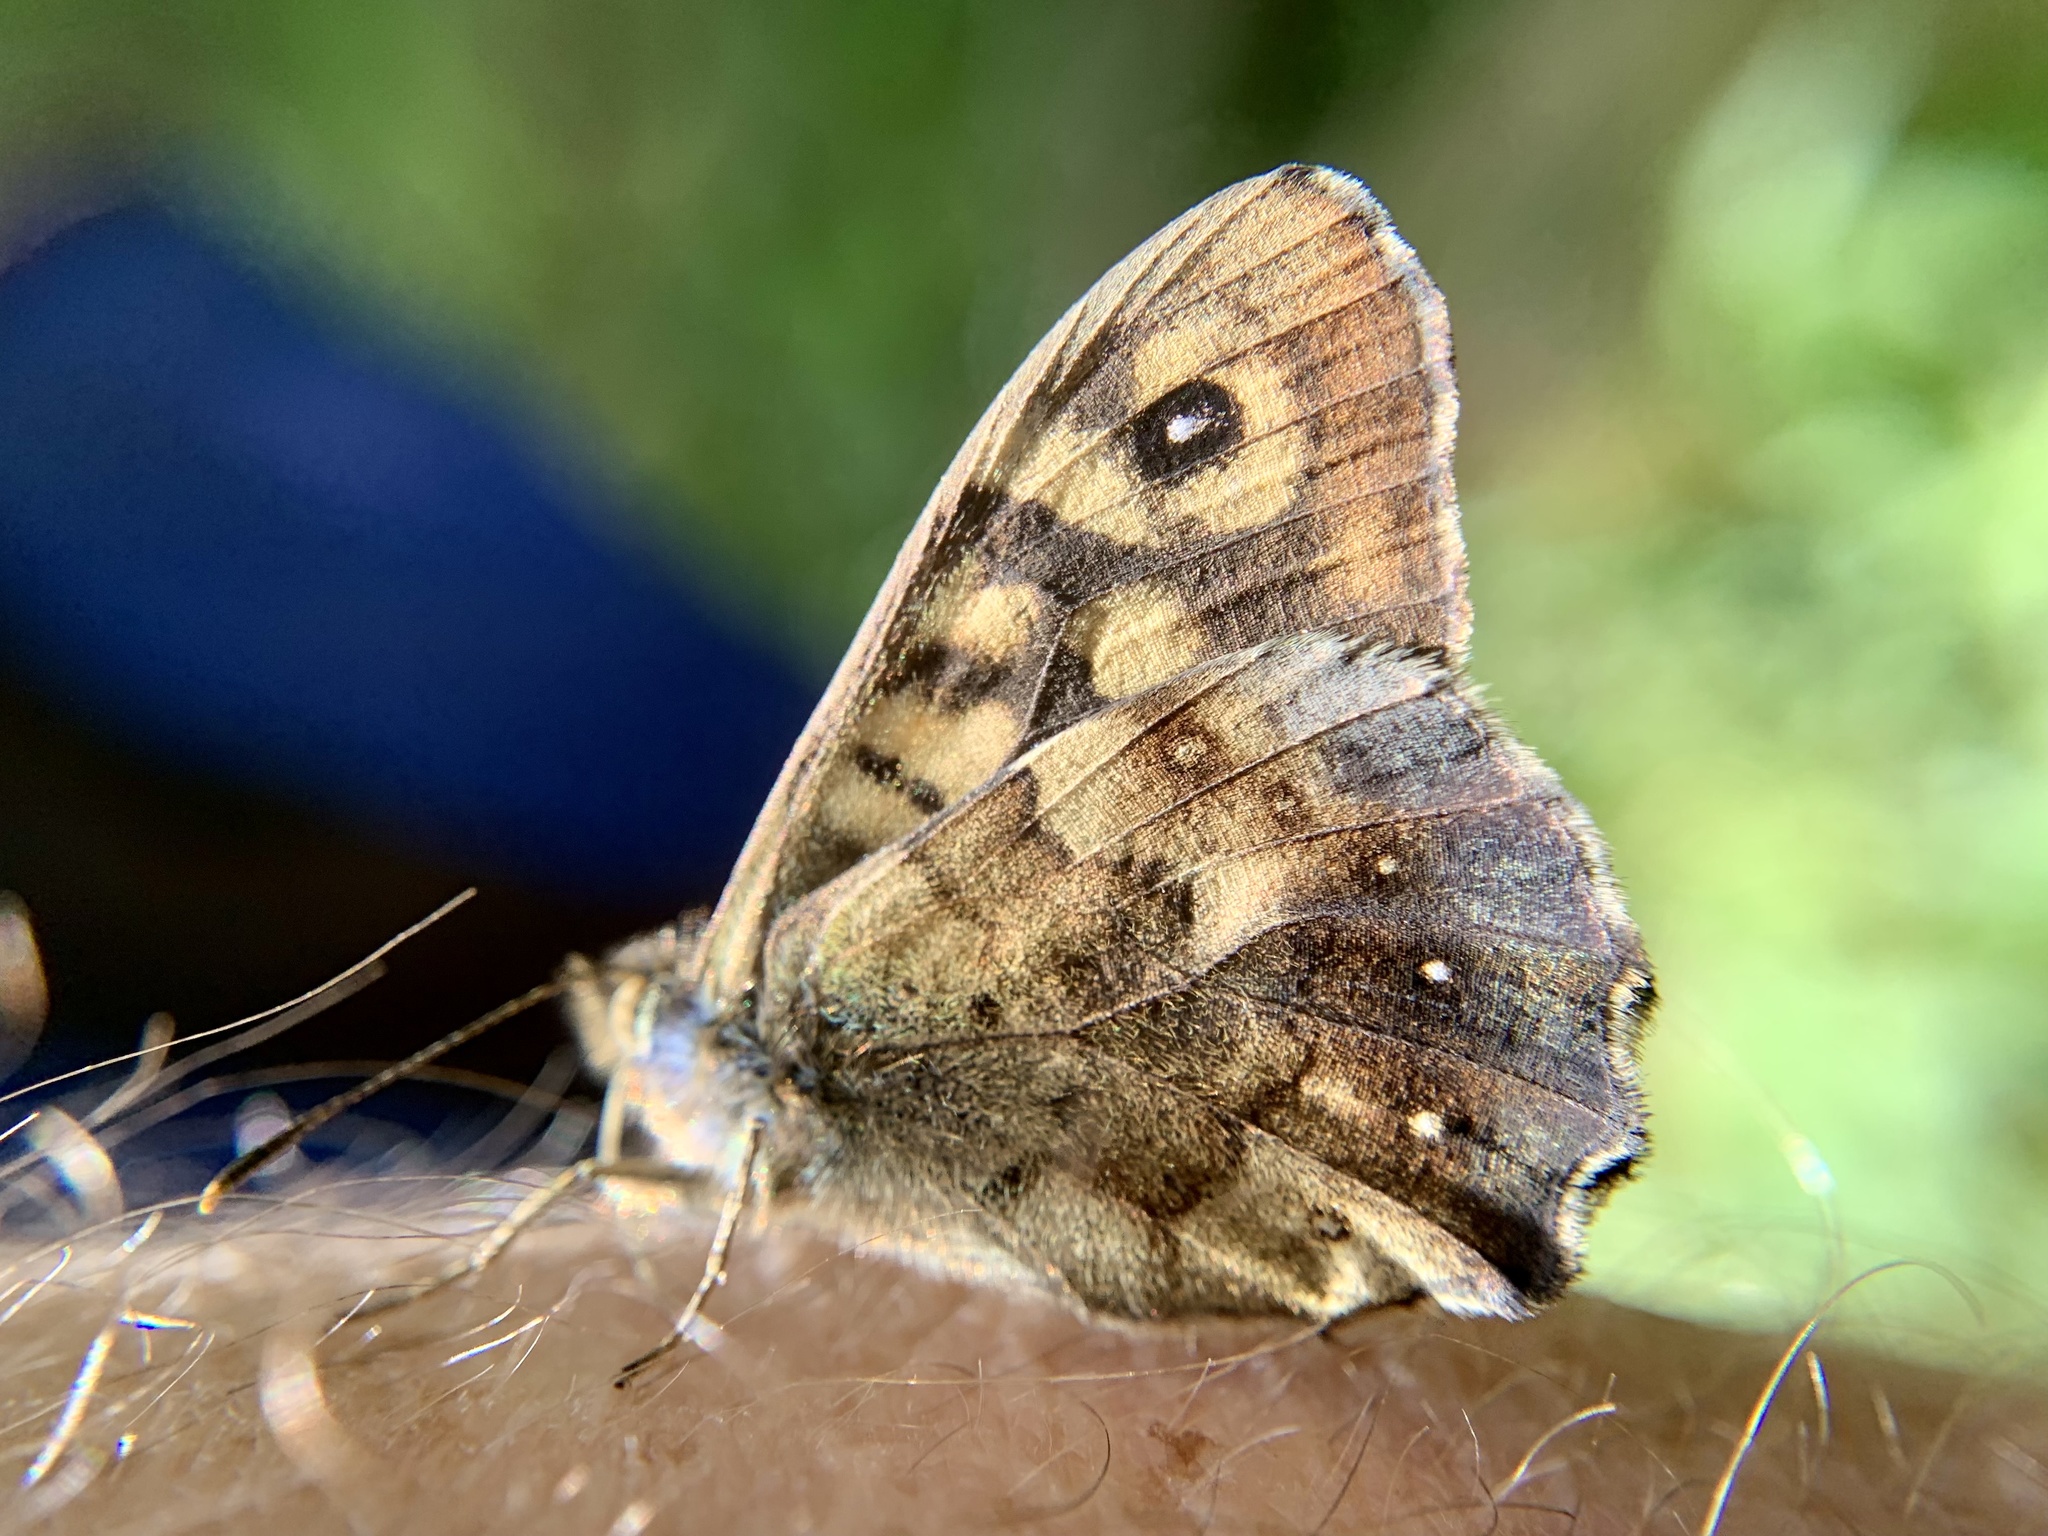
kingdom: Animalia
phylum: Arthropoda
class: Insecta
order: Lepidoptera
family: Nymphalidae
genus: Pararge
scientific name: Pararge aegeria
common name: Speckled wood
